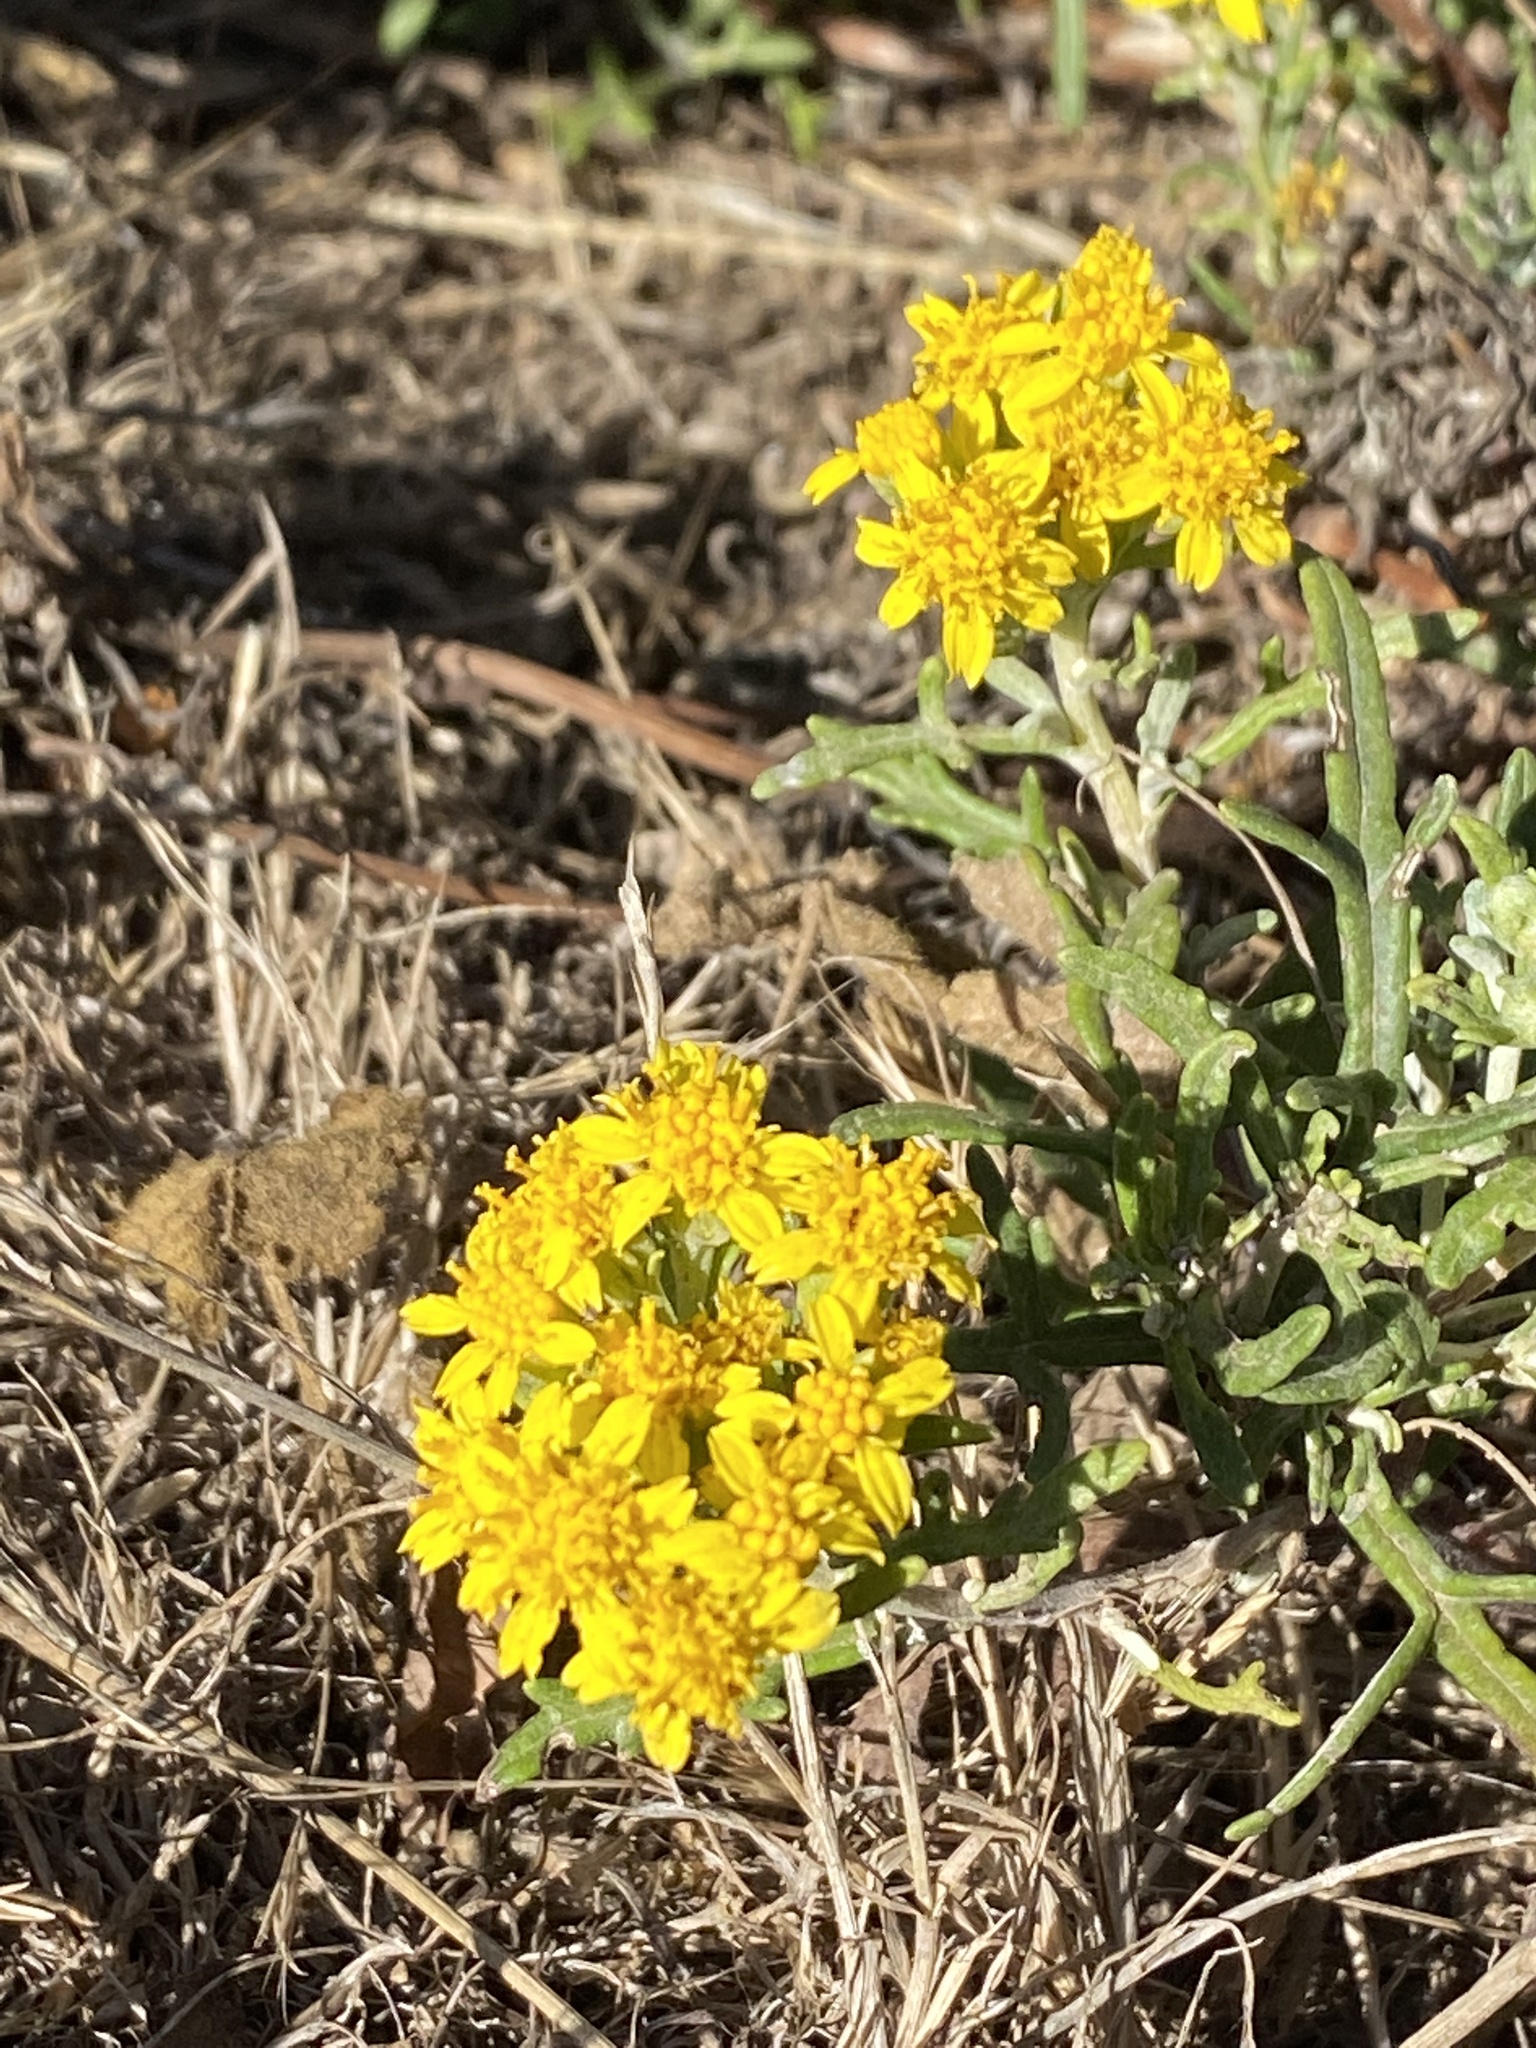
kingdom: Plantae
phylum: Tracheophyta
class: Magnoliopsida
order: Asterales
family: Asteraceae
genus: Eriophyllum
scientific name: Eriophyllum staechadifolium
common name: Lizardtail
